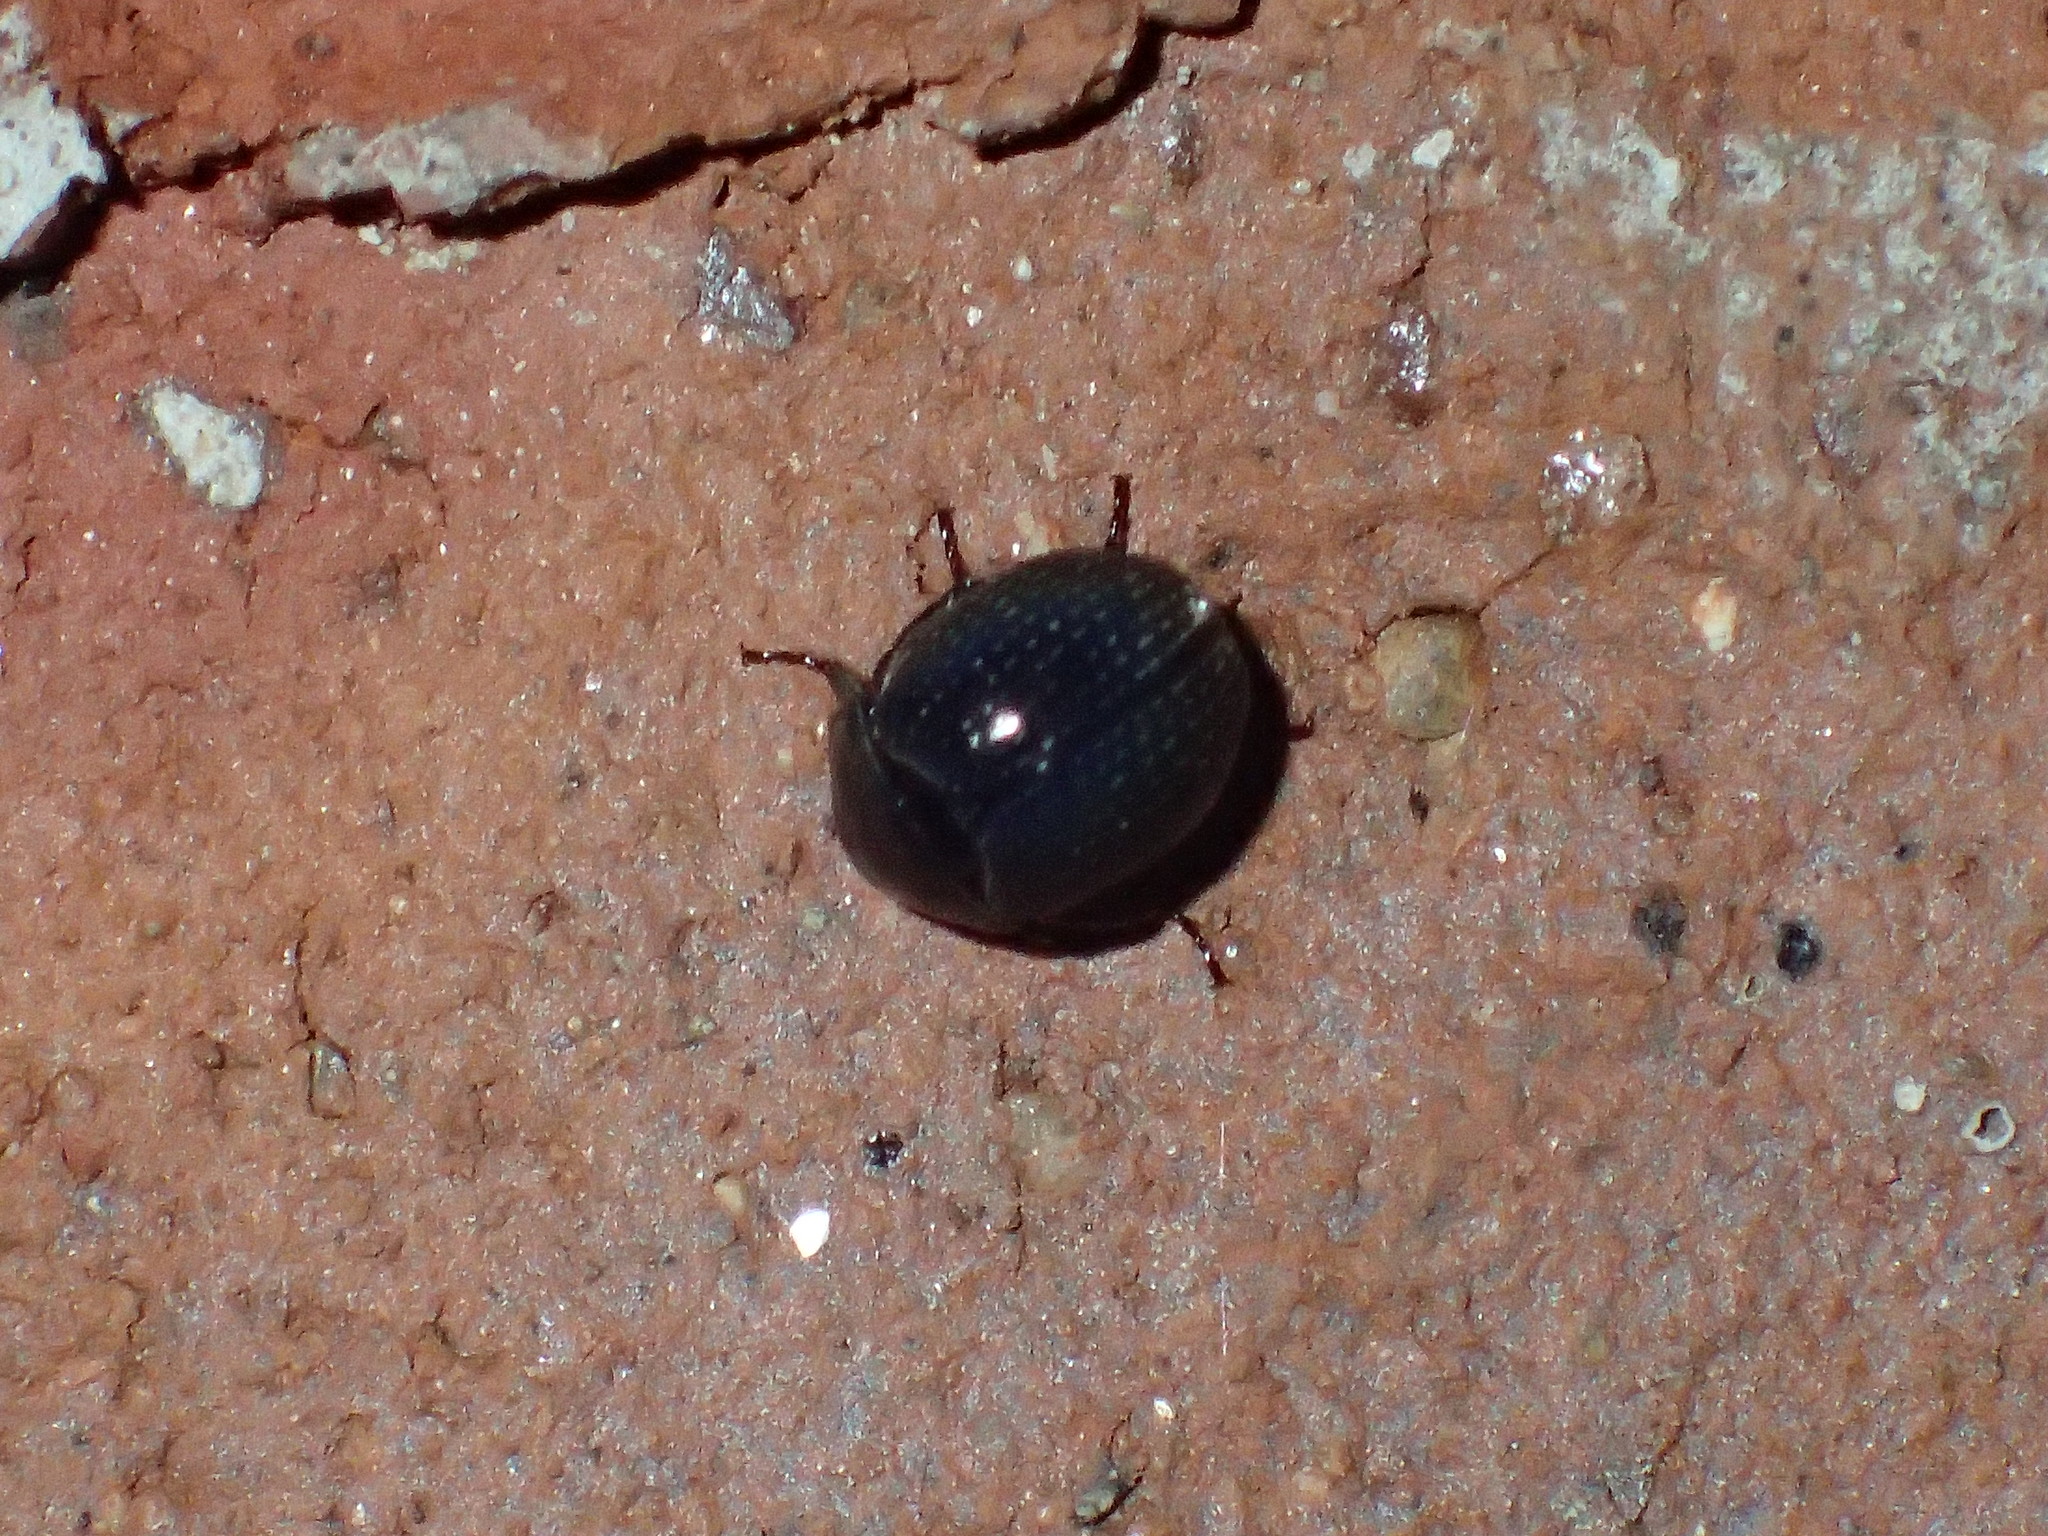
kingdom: Animalia
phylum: Arthropoda
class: Insecta
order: Coleoptera
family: Hybosoridae
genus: Germarostes
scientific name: Germarostes globosus
